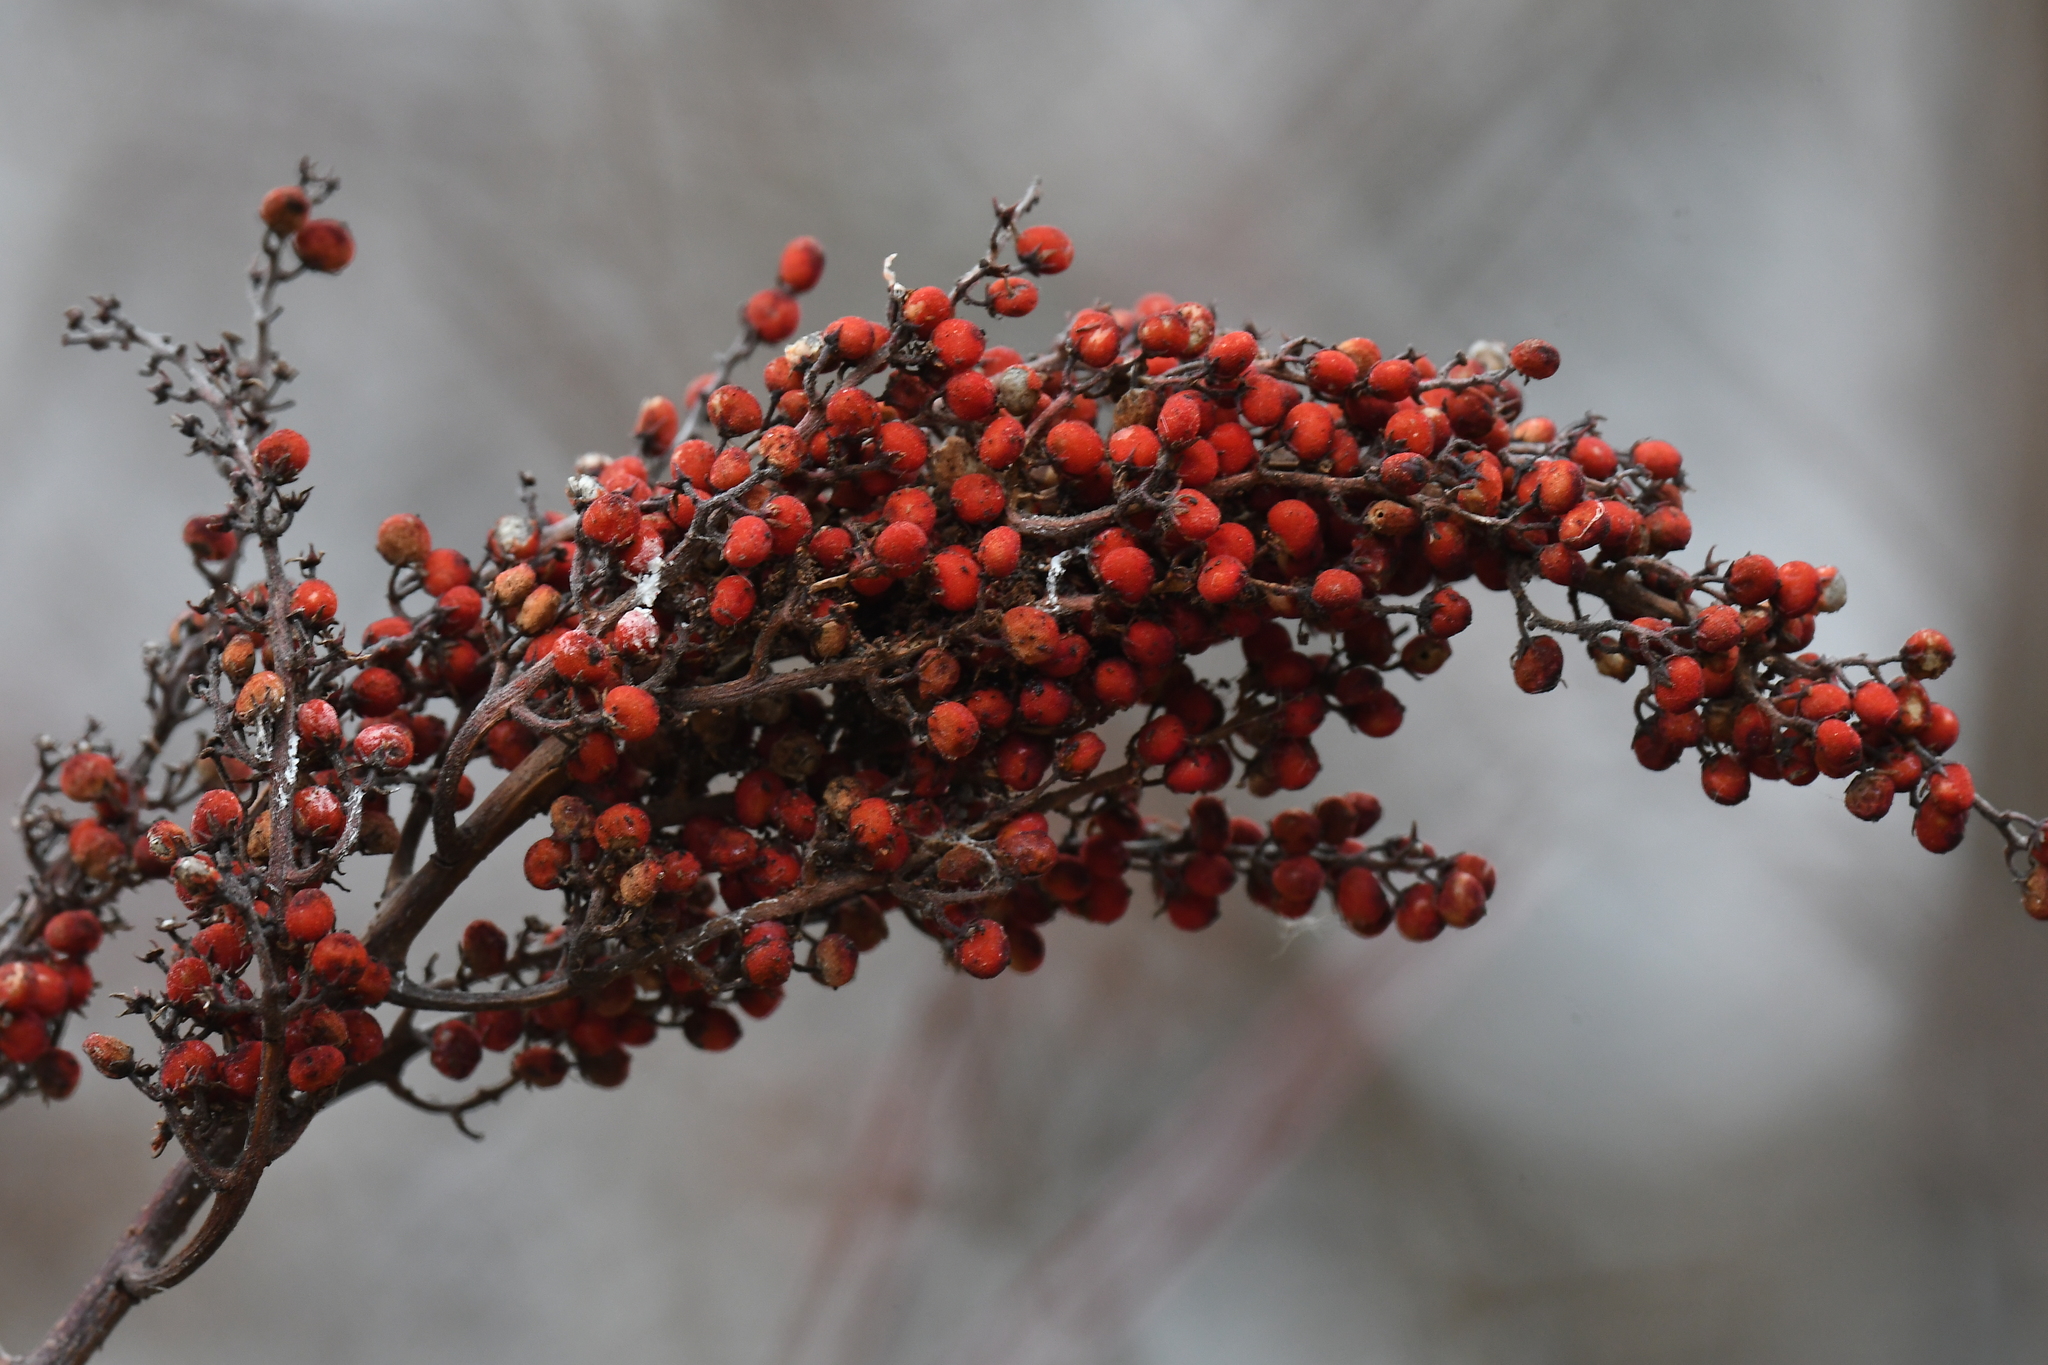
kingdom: Plantae
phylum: Tracheophyta
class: Magnoliopsida
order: Sapindales
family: Anacardiaceae
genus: Rhus
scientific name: Rhus glabra
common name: Scarlet sumac
